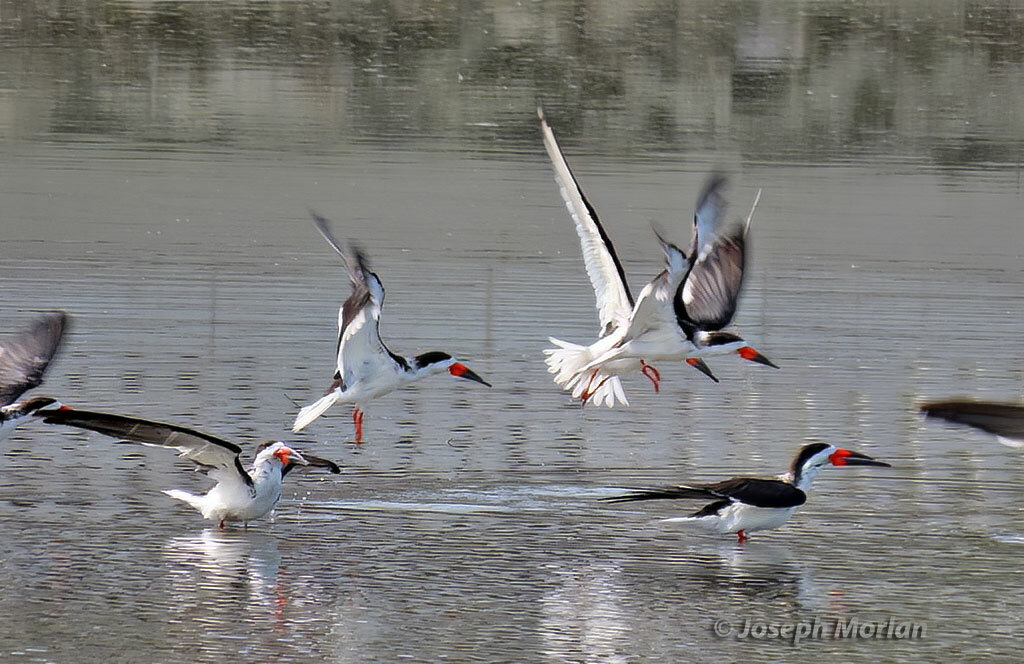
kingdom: Animalia
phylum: Chordata
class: Aves
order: Charadriiformes
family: Laridae
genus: Rynchops
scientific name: Rynchops niger
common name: Black skimmer
